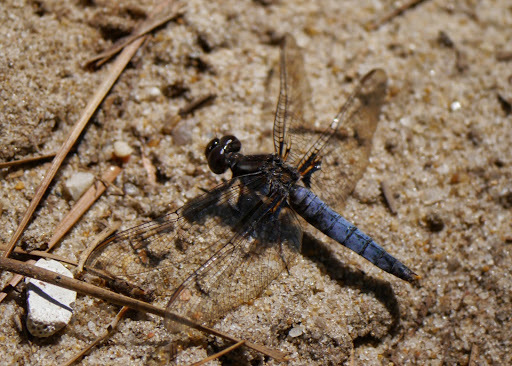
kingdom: Animalia
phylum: Arthropoda
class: Insecta
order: Odonata
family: Libellulidae
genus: Ladona
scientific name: Ladona deplanata
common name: Blue corporal
